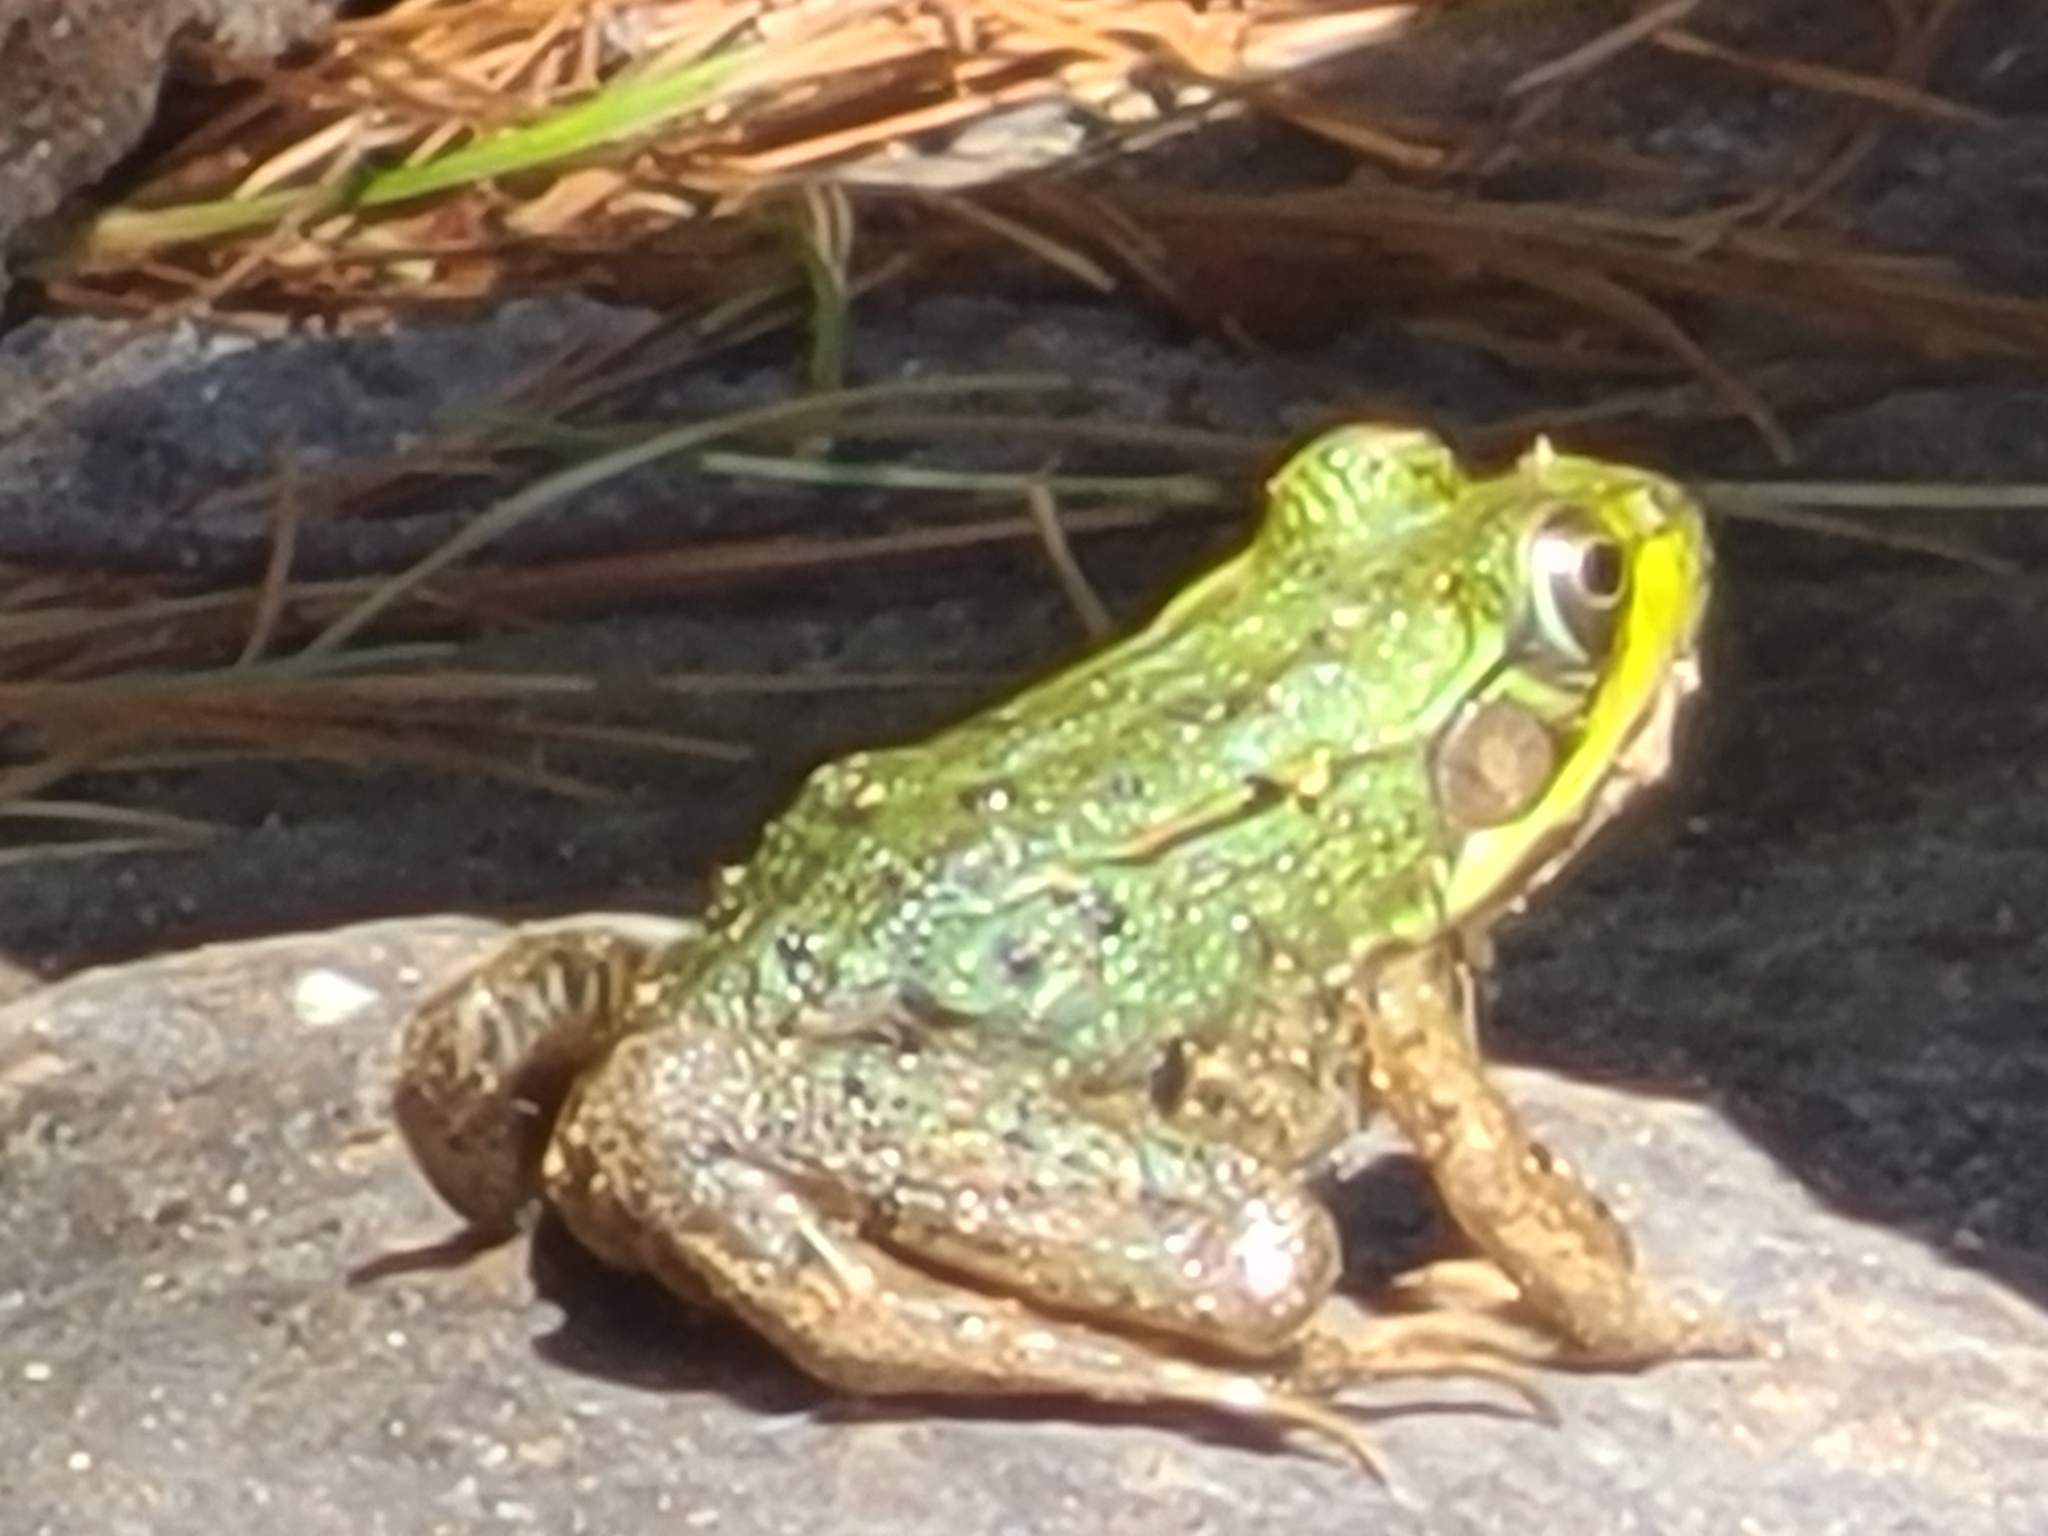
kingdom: Animalia
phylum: Chordata
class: Amphibia
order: Anura
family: Ranidae
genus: Lithobates
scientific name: Lithobates clamitans
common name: Green frog
